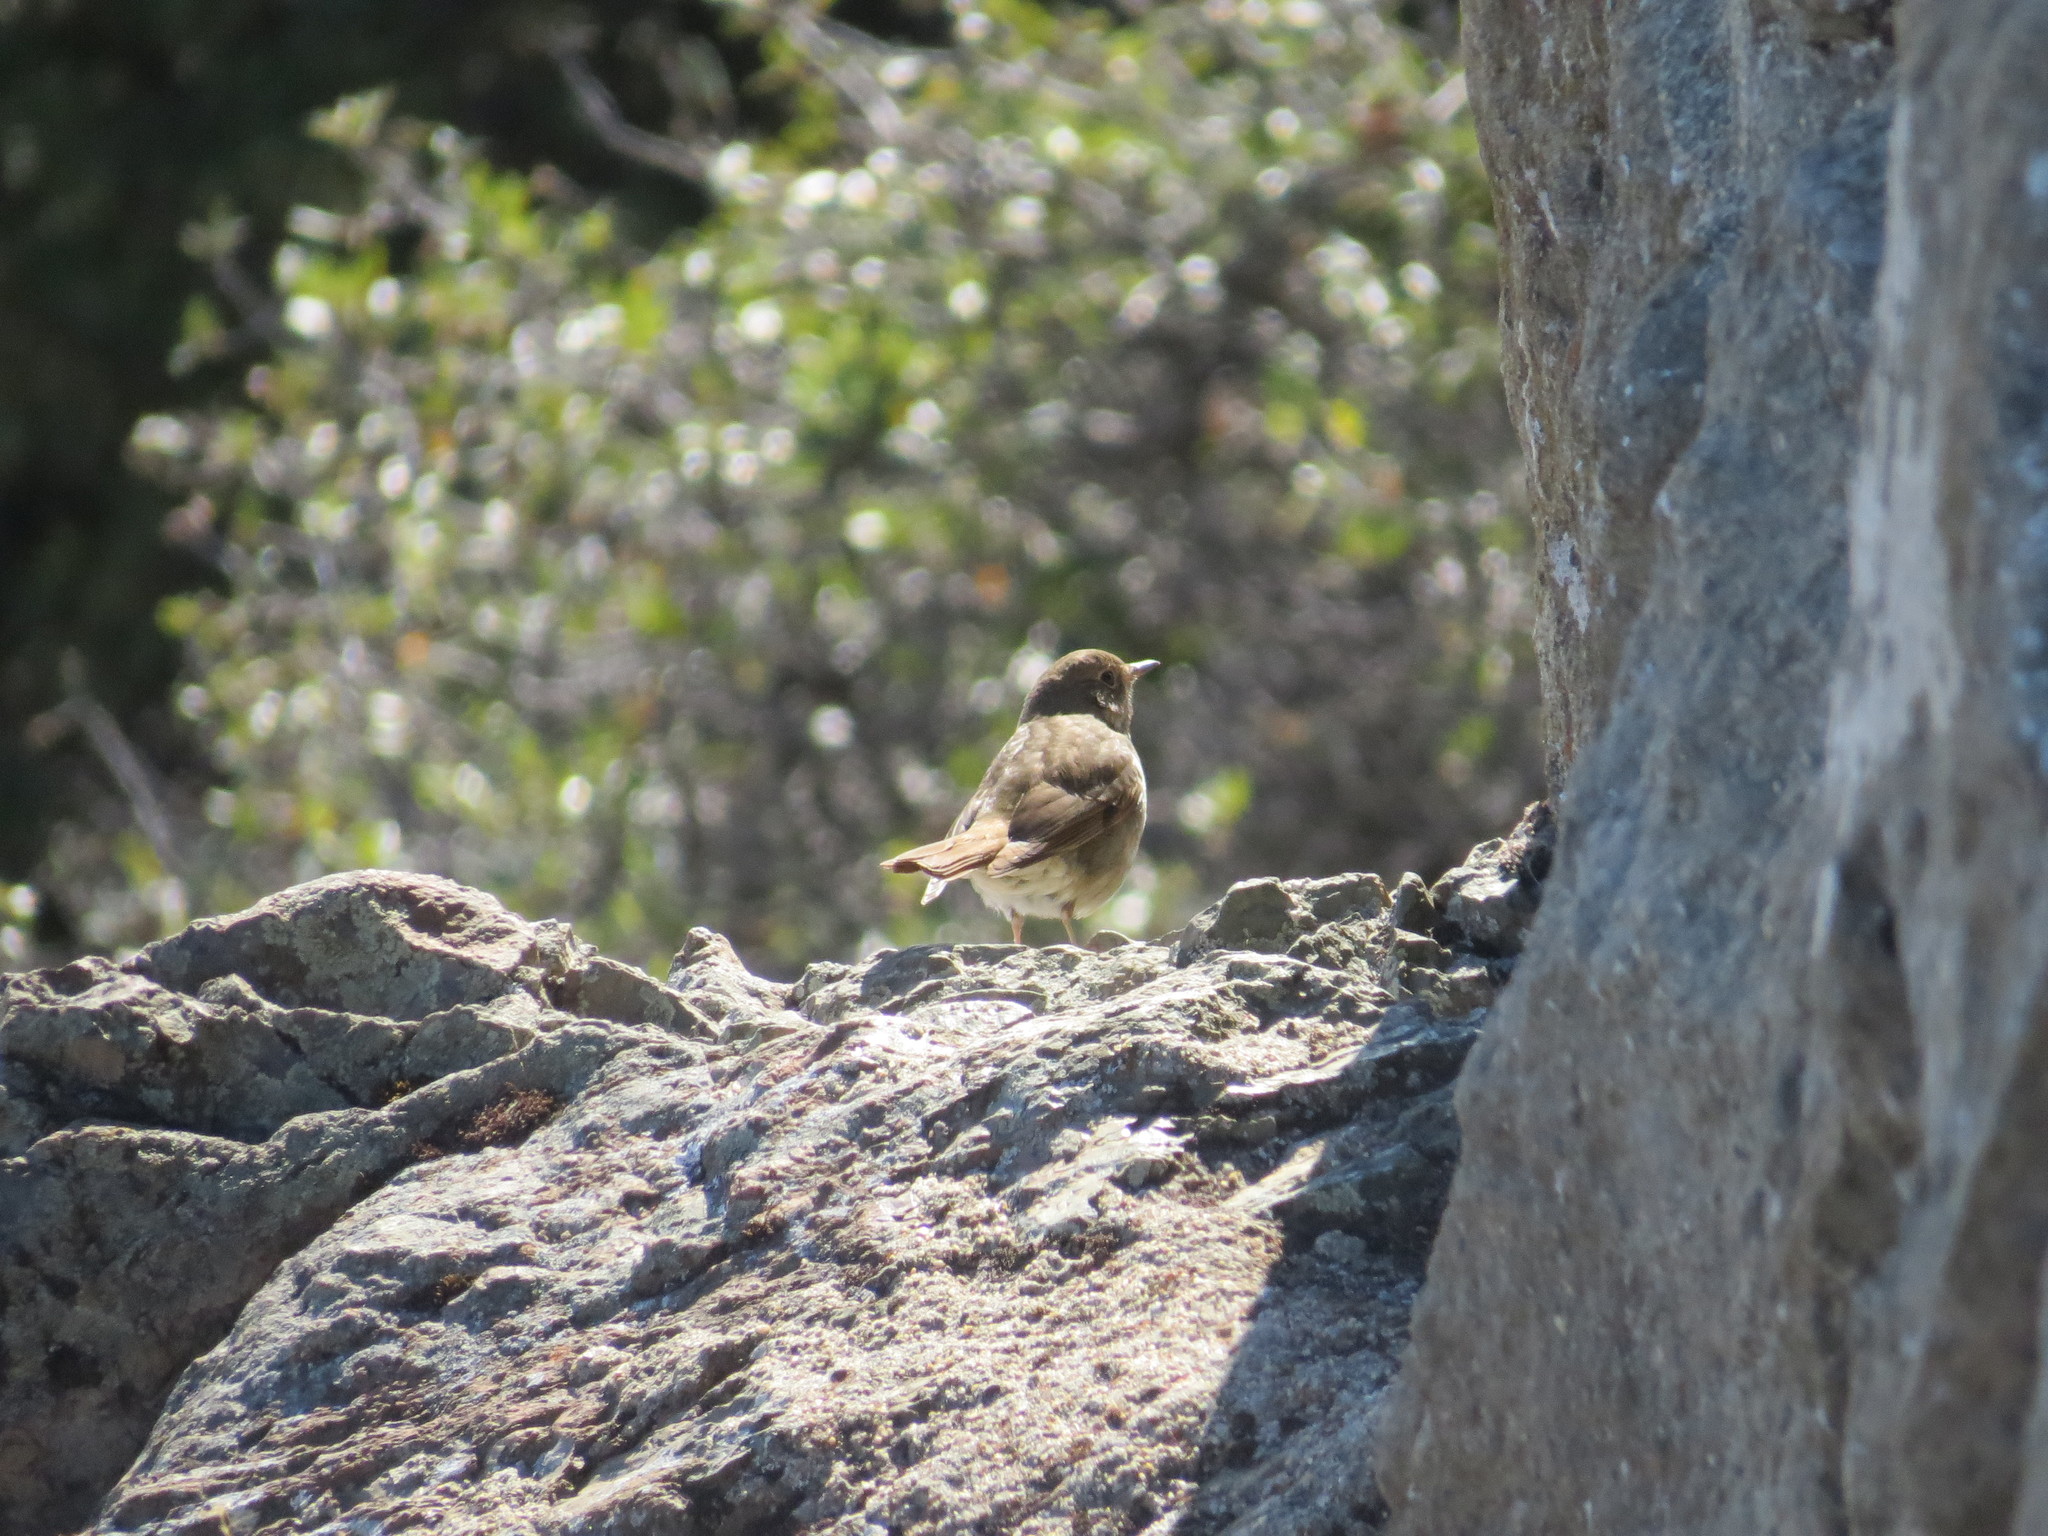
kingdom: Animalia
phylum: Chordata
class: Aves
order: Passeriformes
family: Turdidae
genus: Catharus
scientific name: Catharus guttatus
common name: Hermit thrush
